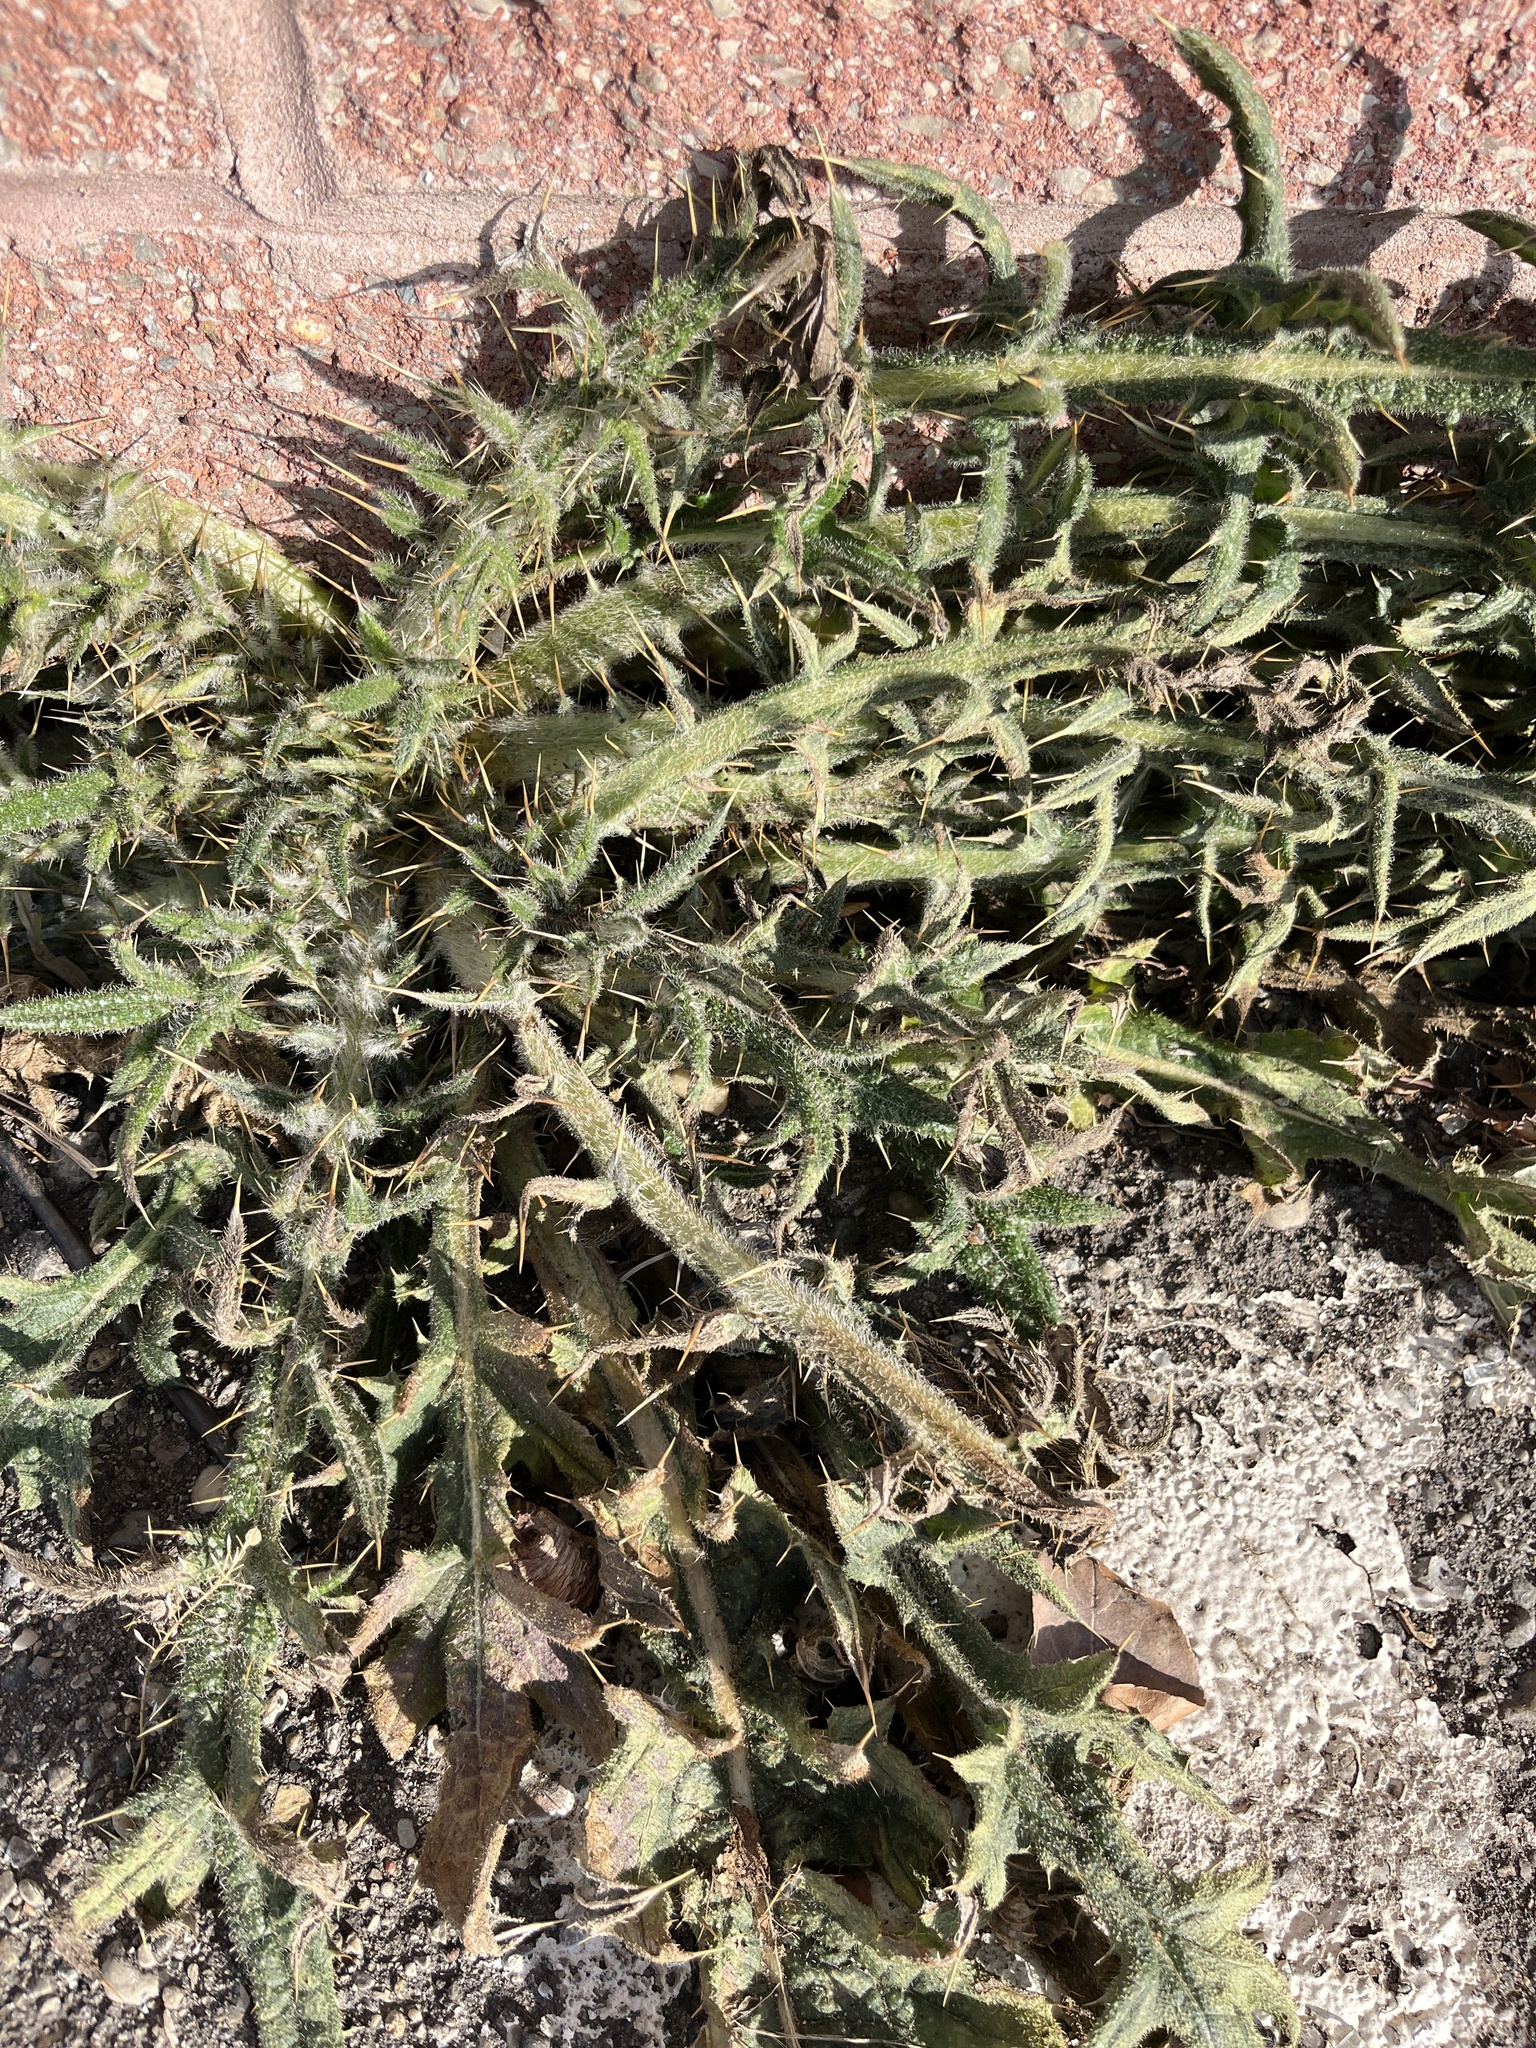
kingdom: Plantae
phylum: Tracheophyta
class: Magnoliopsida
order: Asterales
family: Asteraceae
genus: Cirsium
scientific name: Cirsium vulgare
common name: Bull thistle
